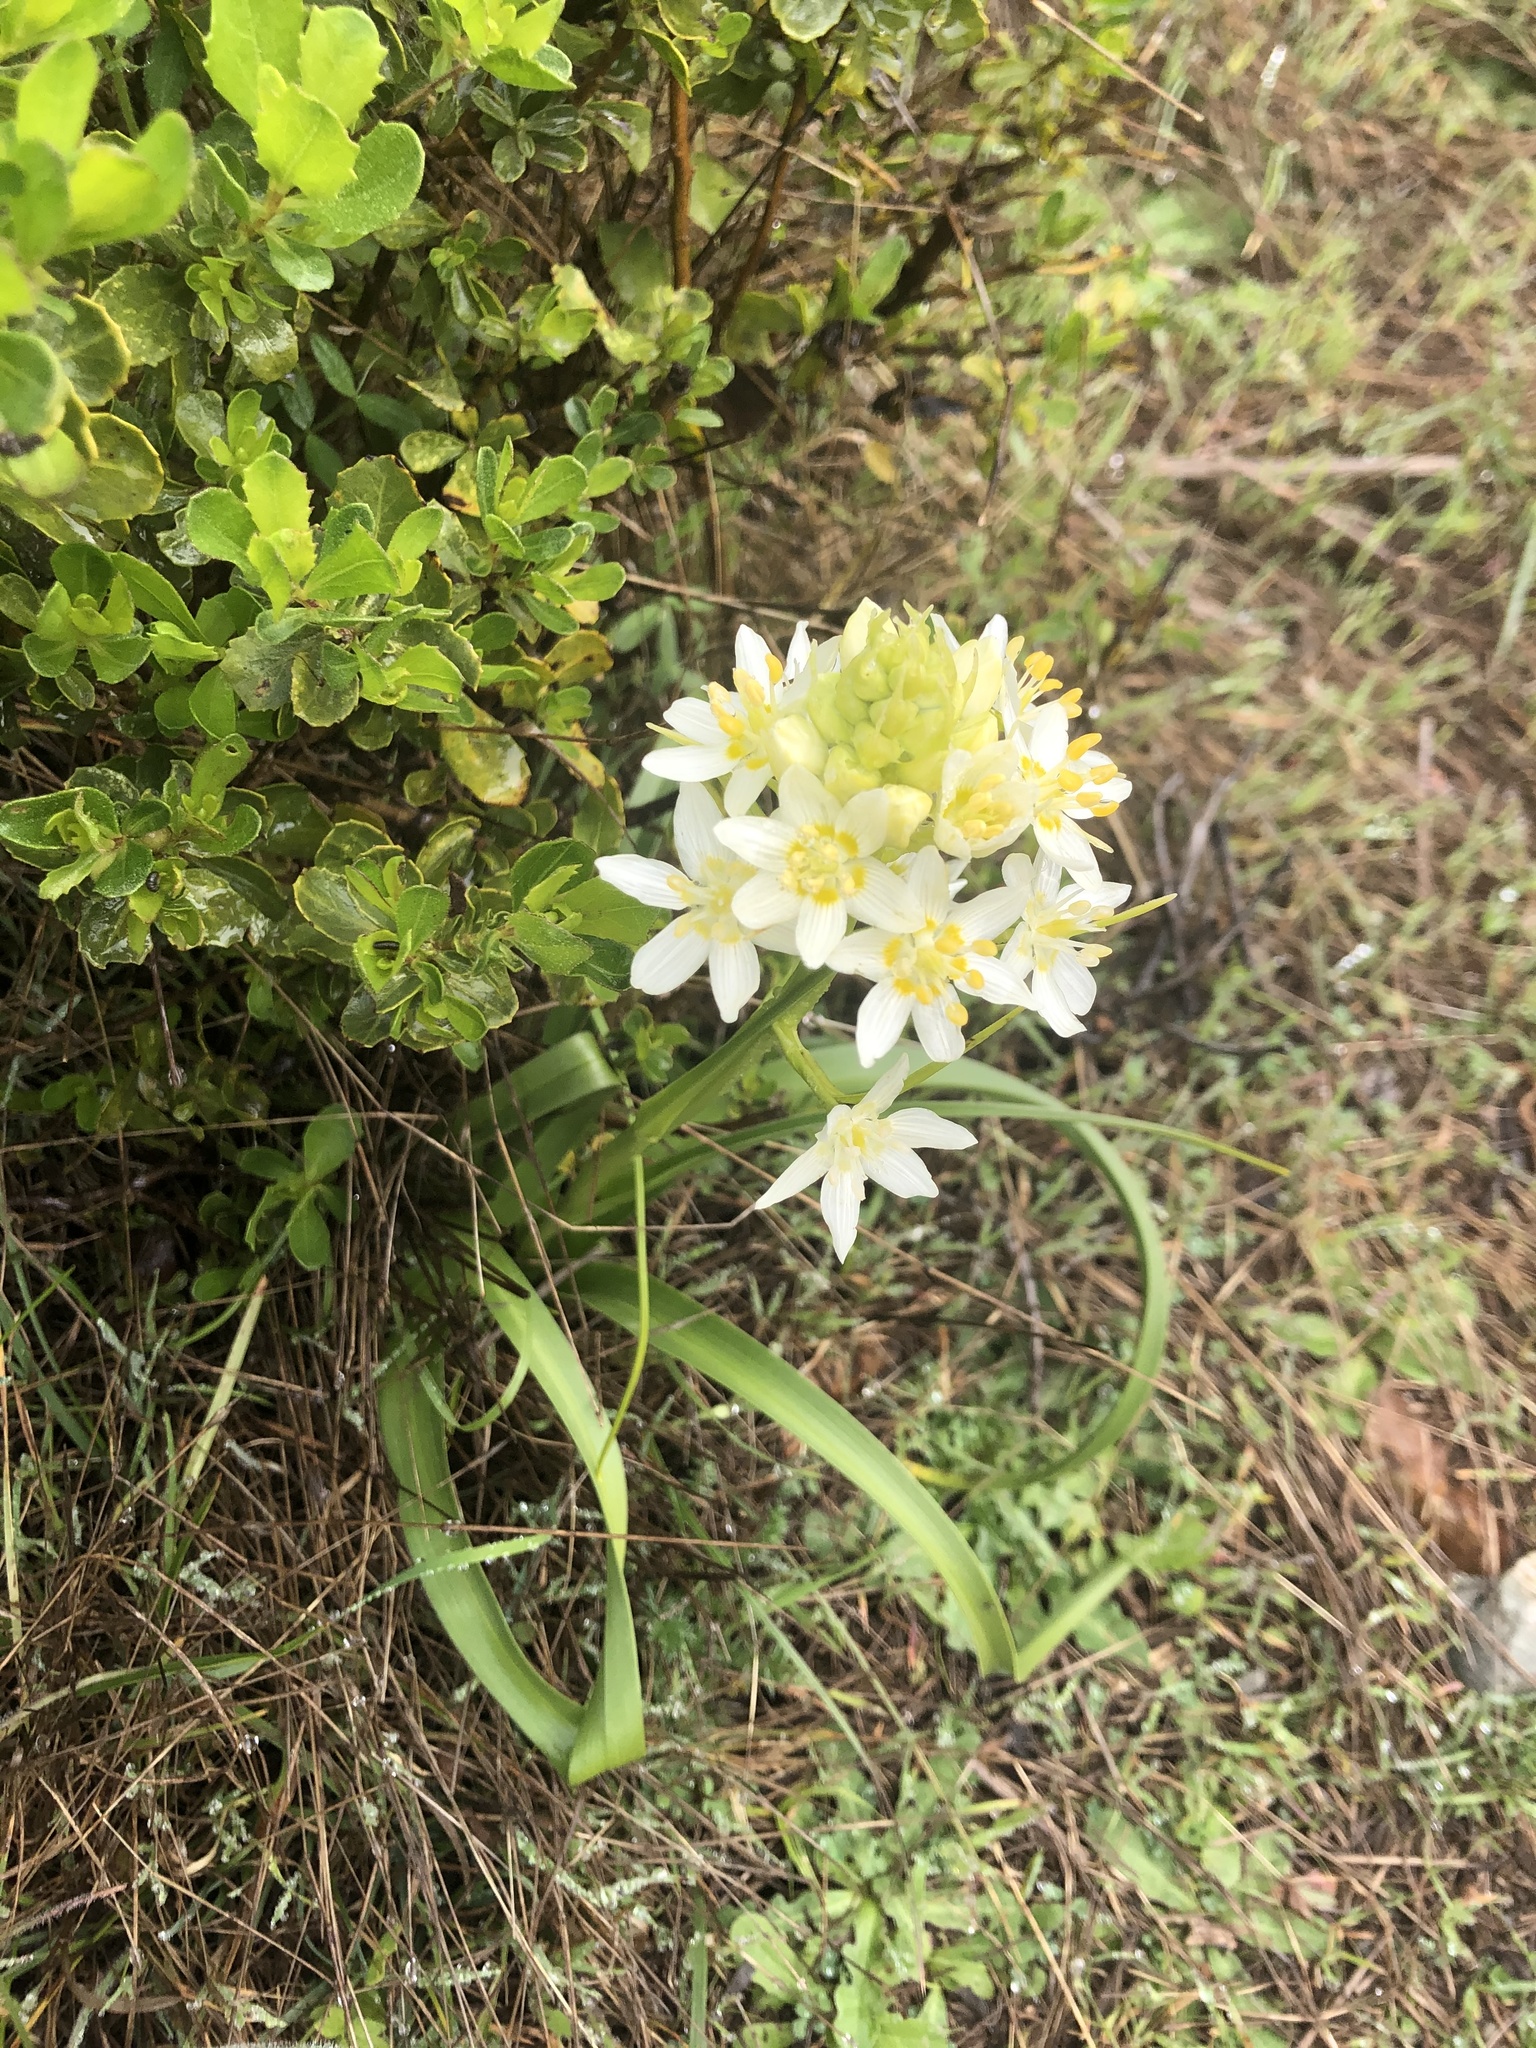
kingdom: Plantae
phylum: Tracheophyta
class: Liliopsida
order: Liliales
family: Melanthiaceae
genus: Toxicoscordion
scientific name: Toxicoscordion fremontii
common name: Fremont's death camas
